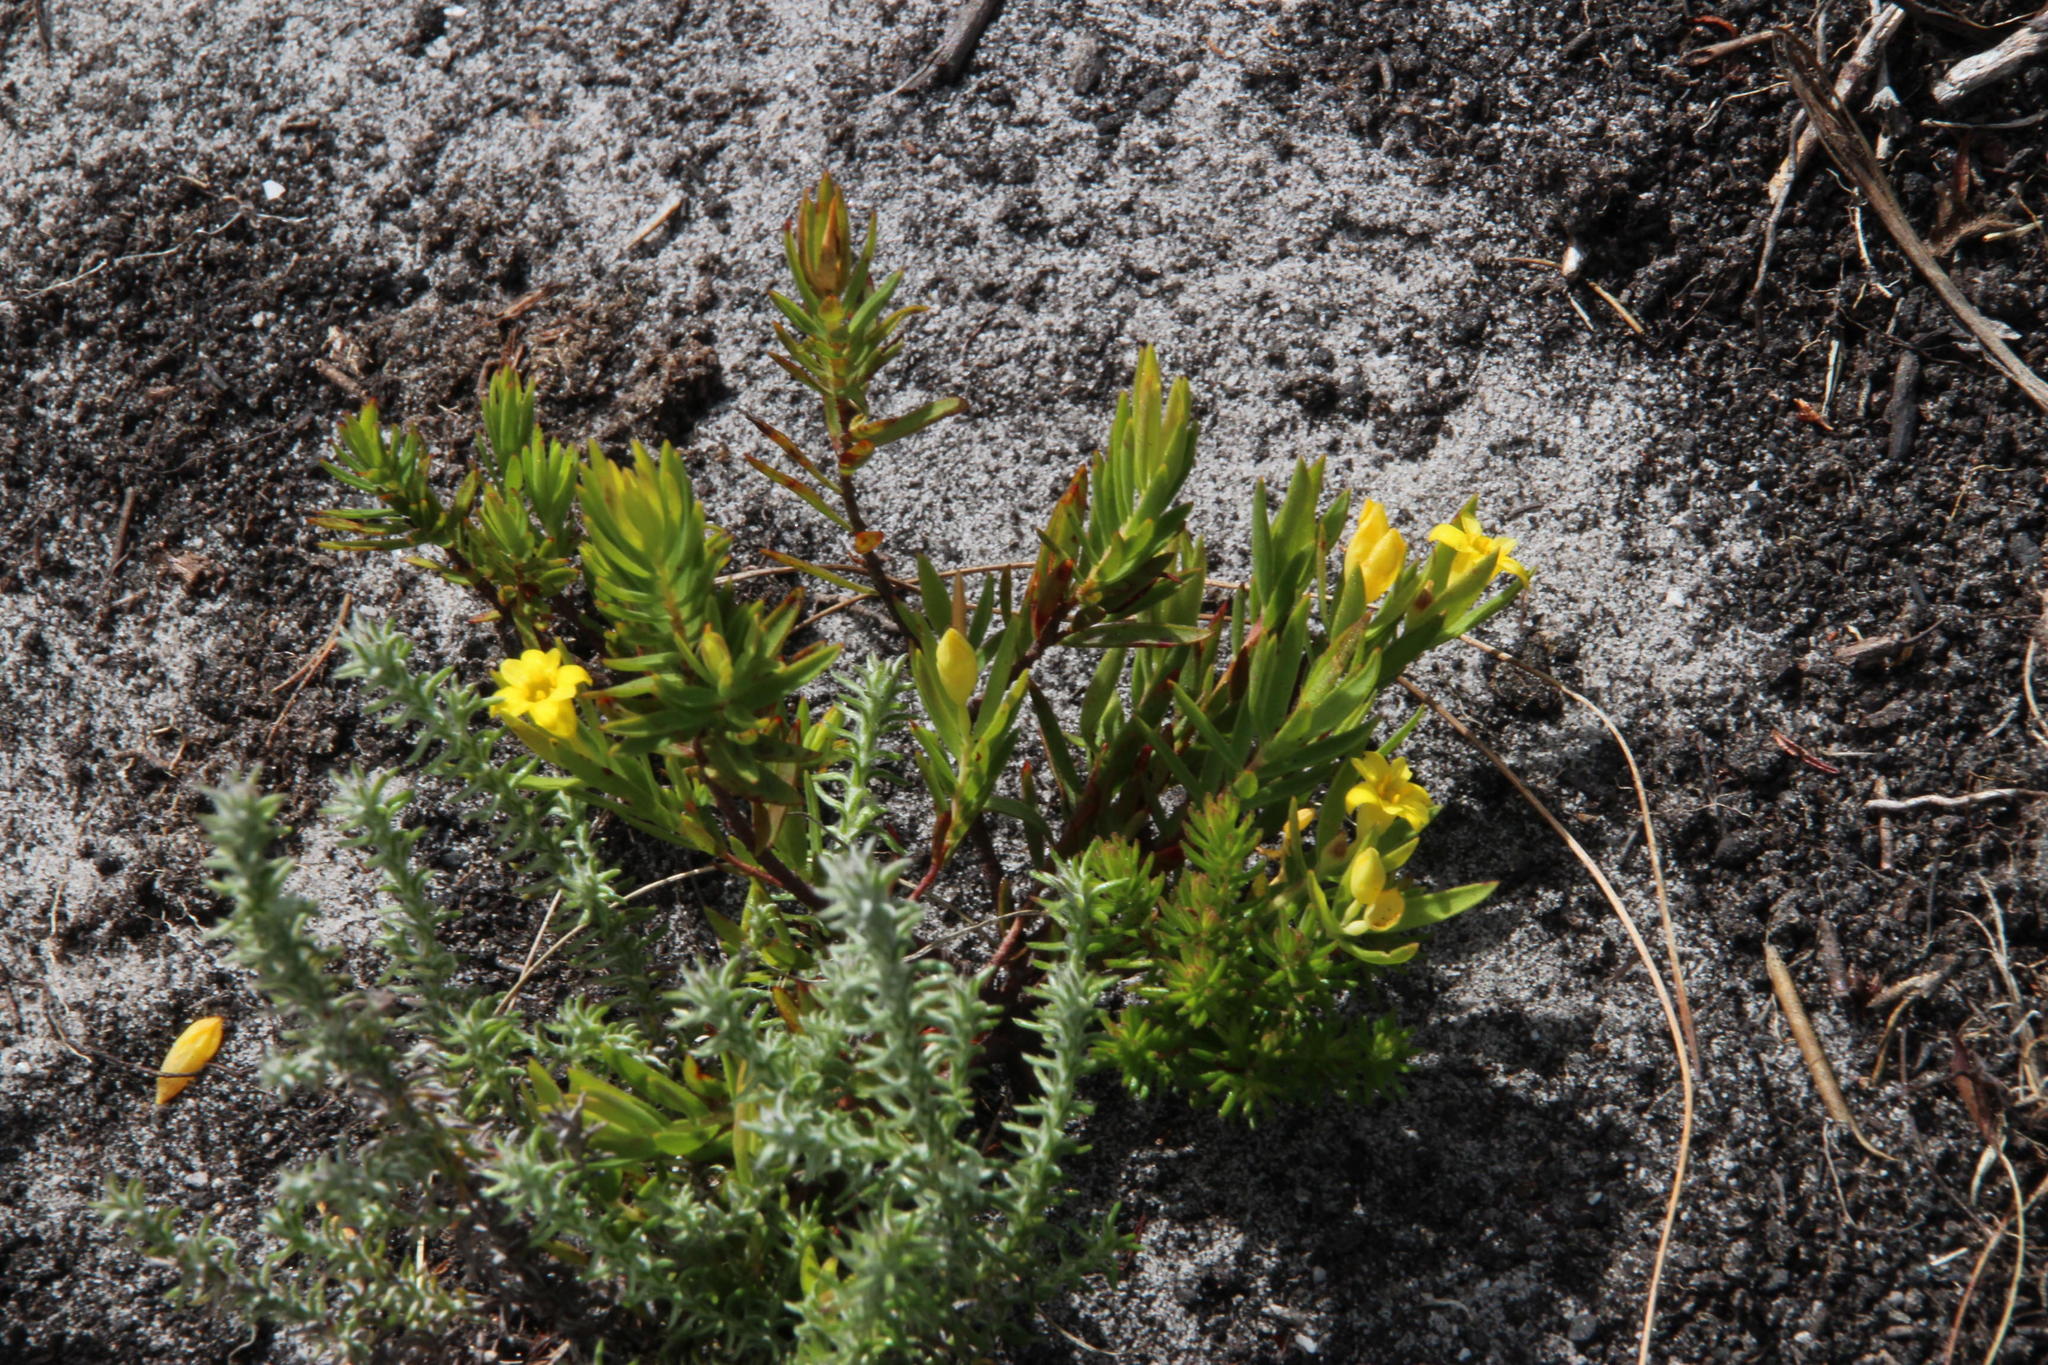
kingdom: Plantae
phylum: Tracheophyta
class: Magnoliopsida
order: Malvales
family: Thymelaeaceae
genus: Gnidia
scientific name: Gnidia juniperifolia
